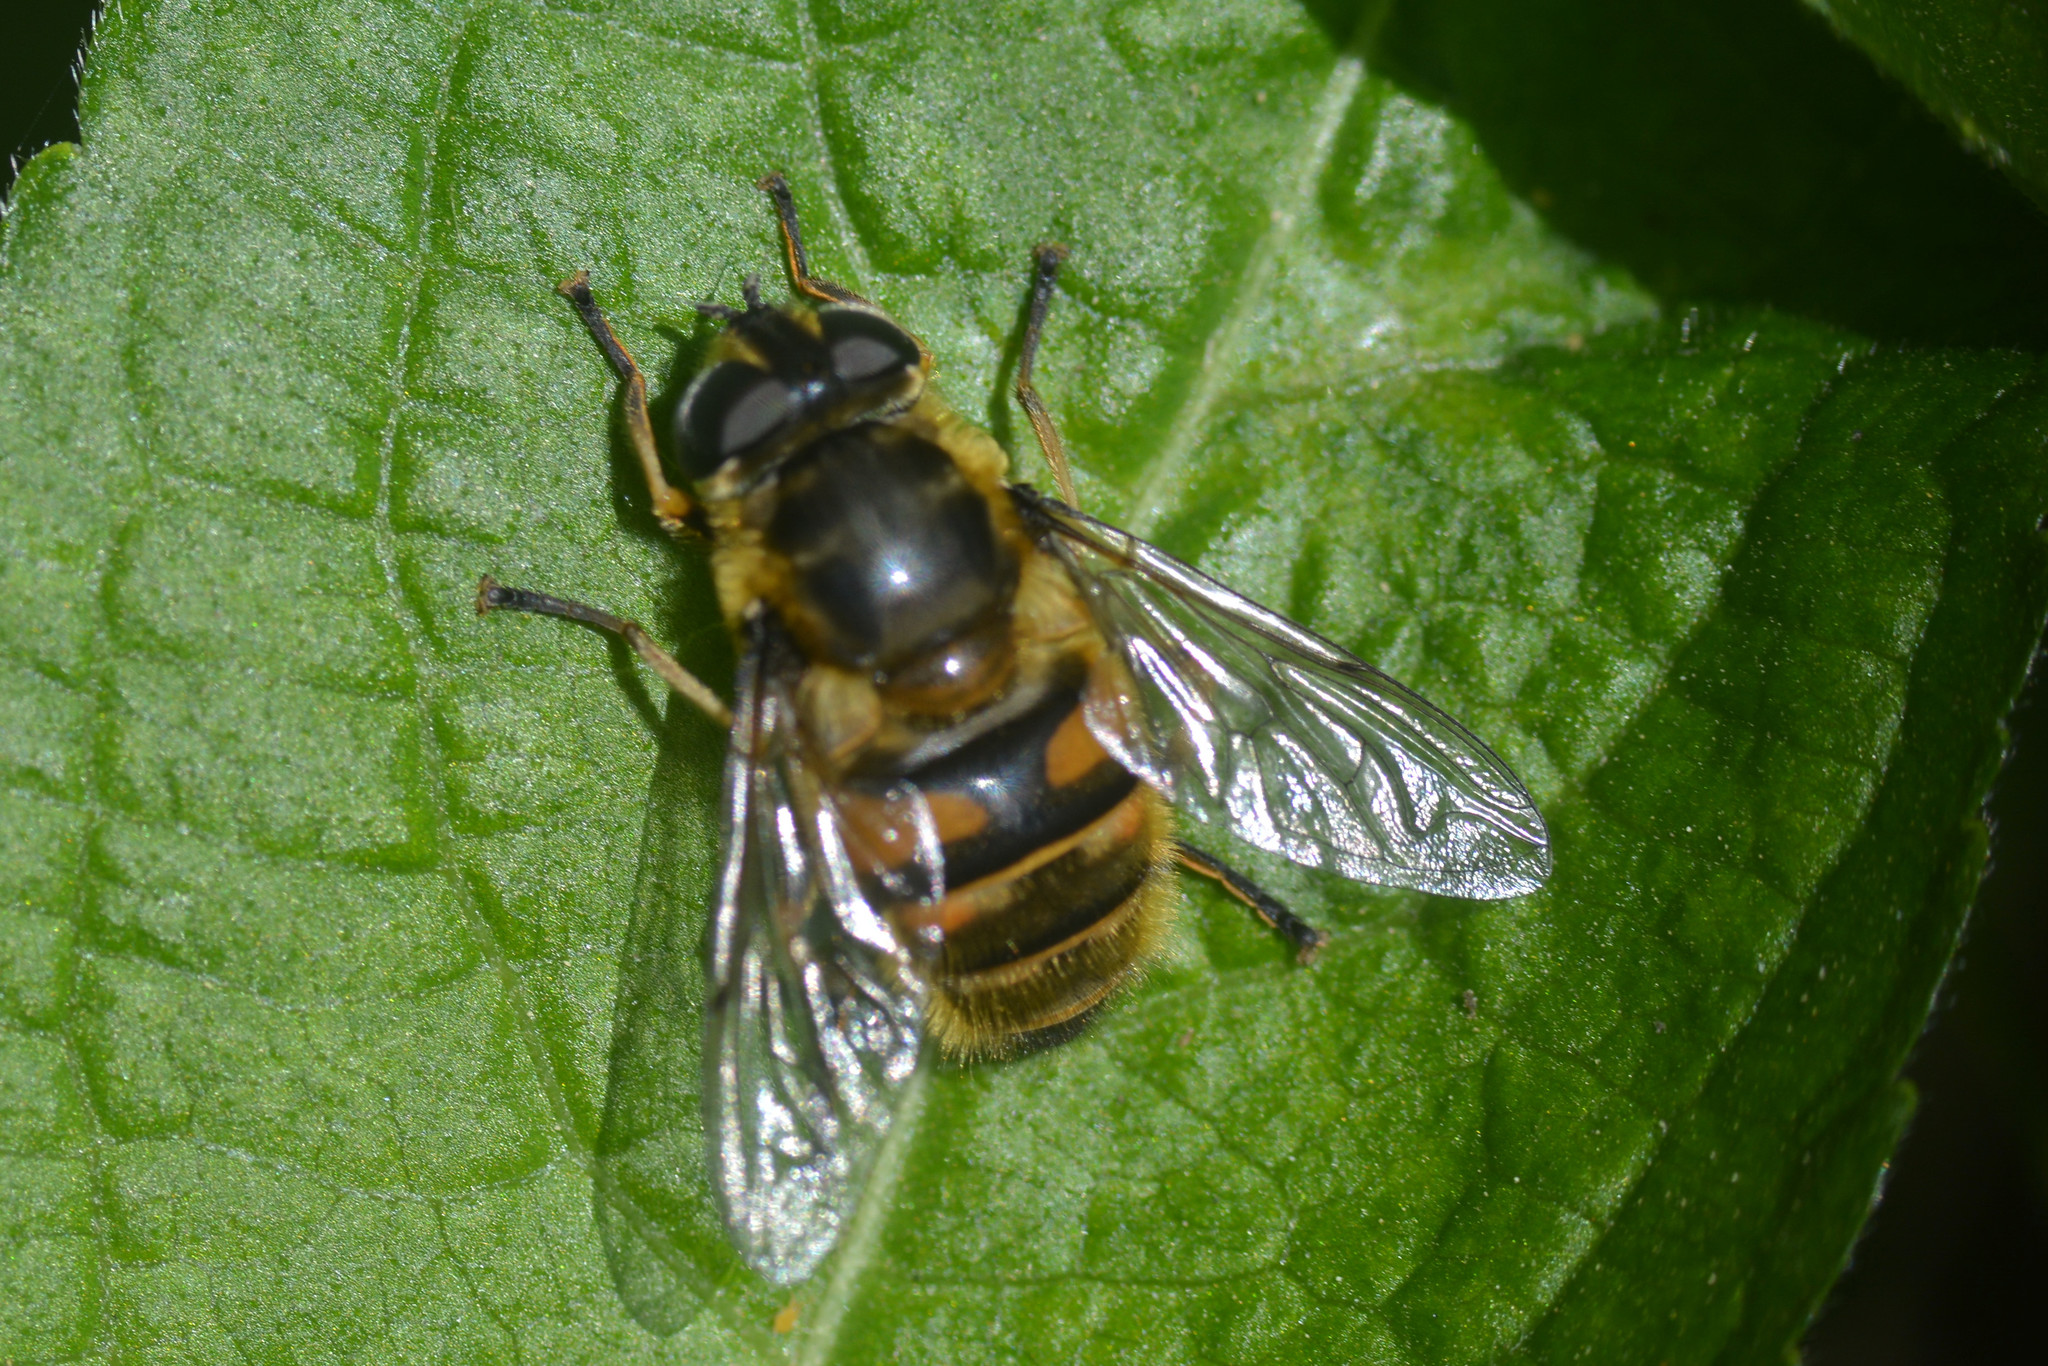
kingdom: Animalia
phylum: Arthropoda
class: Insecta
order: Diptera
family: Syrphidae
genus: Myathropa
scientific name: Myathropa florea
